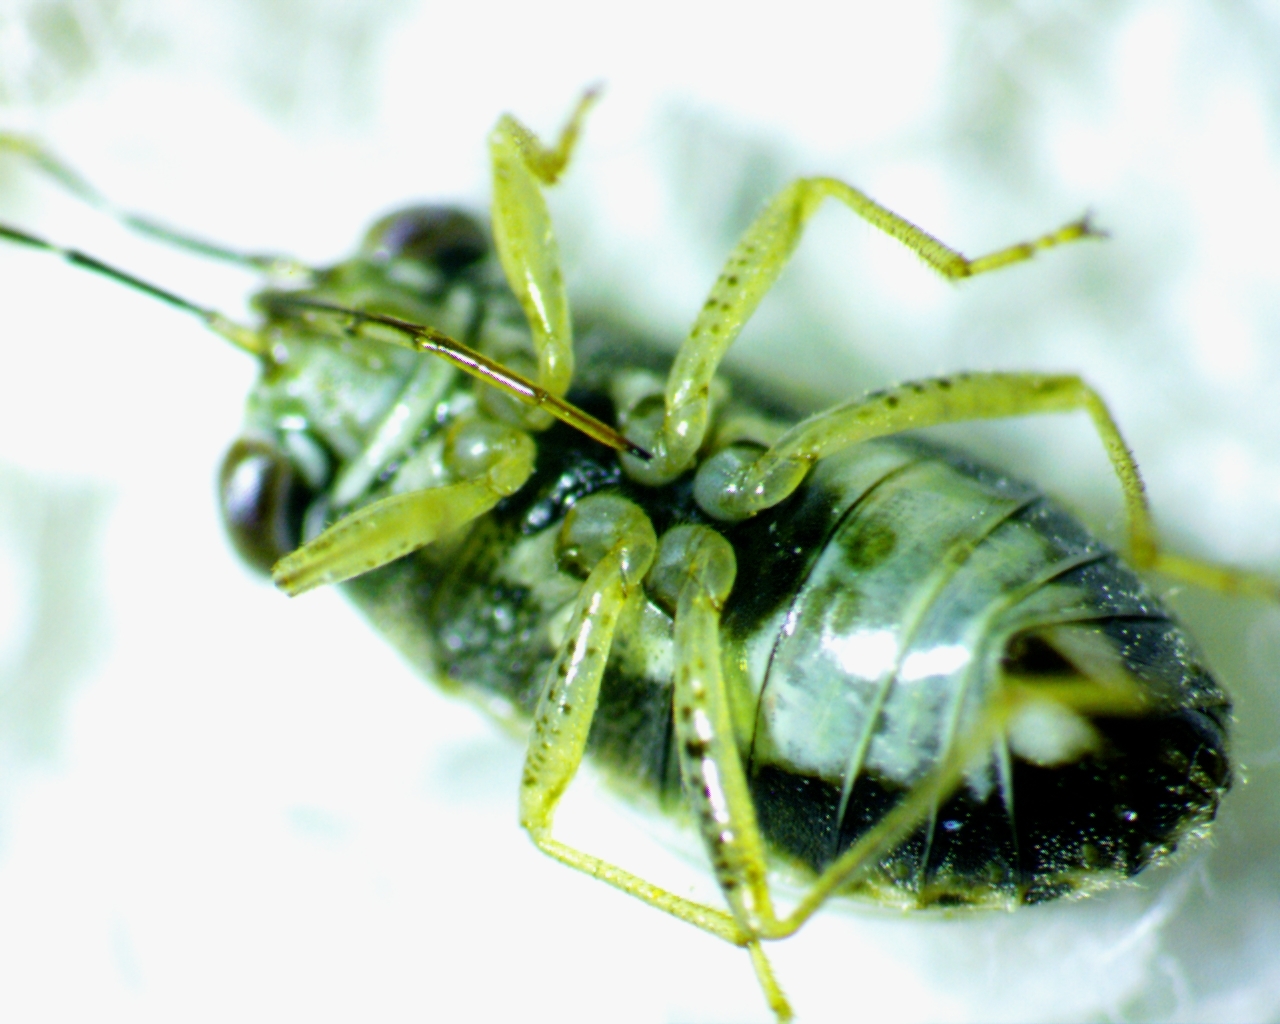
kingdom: Animalia
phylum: Arthropoda
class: Insecta
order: Hemiptera
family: Geocoridae
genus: Geocoris
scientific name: Geocoris punctipes
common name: Big-eyed bug
